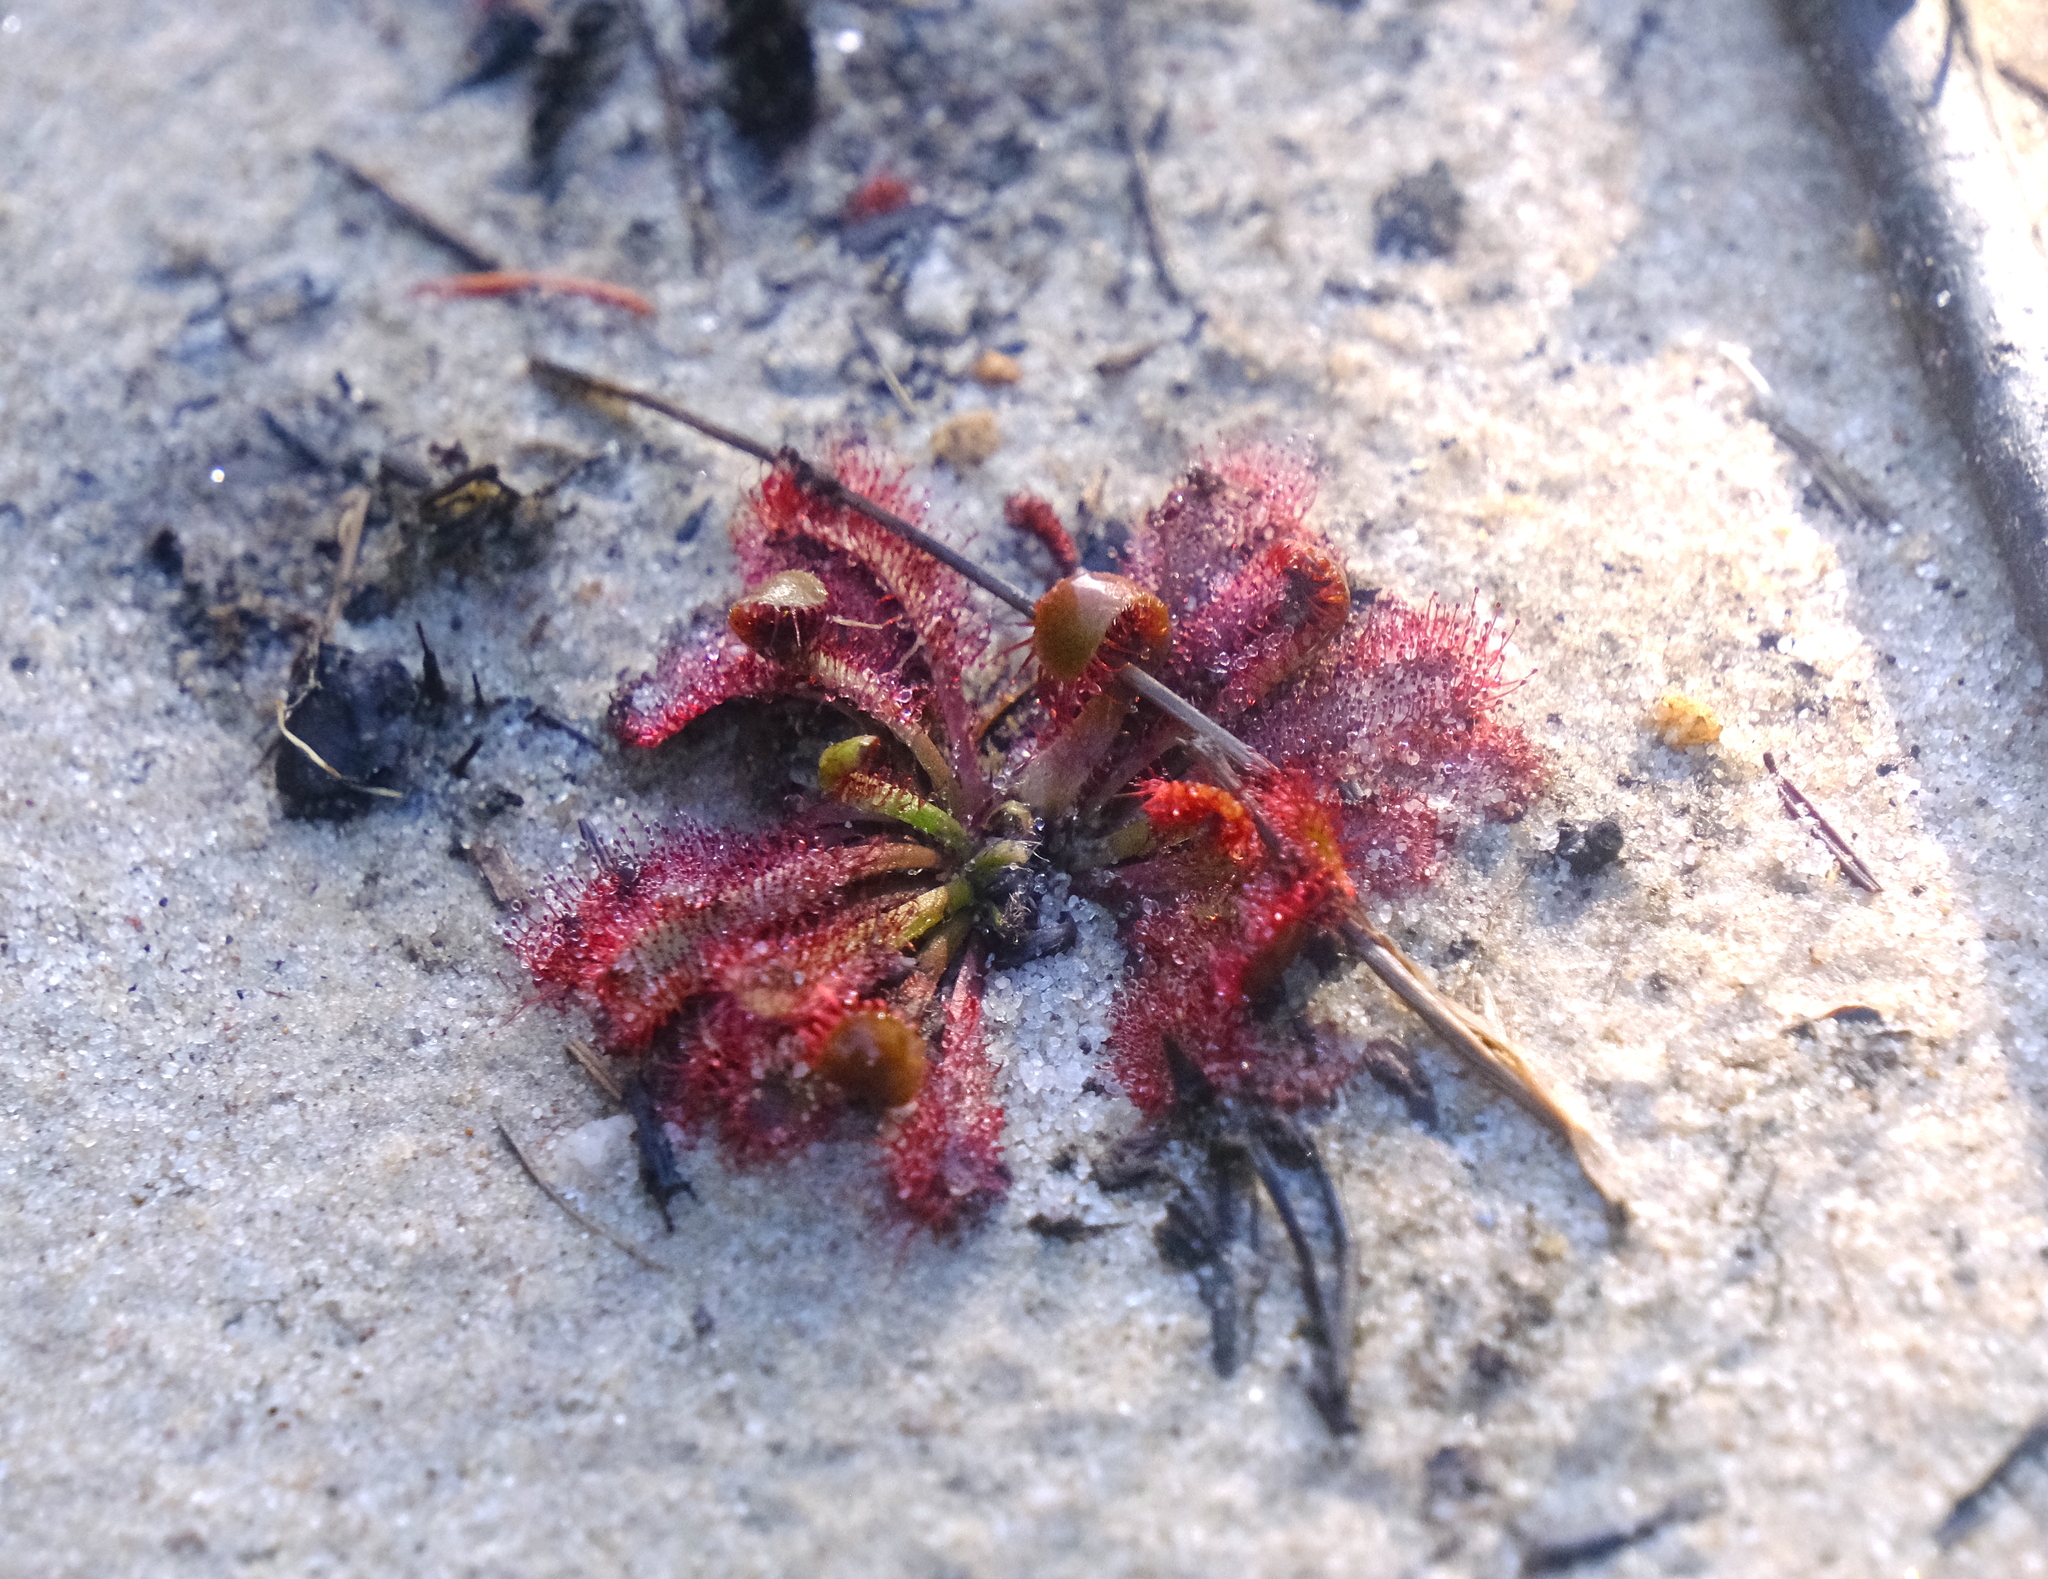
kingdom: Plantae
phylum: Tracheophyta
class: Magnoliopsida
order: Caryophyllales
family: Droseraceae
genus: Drosera
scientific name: Drosera spatulata
